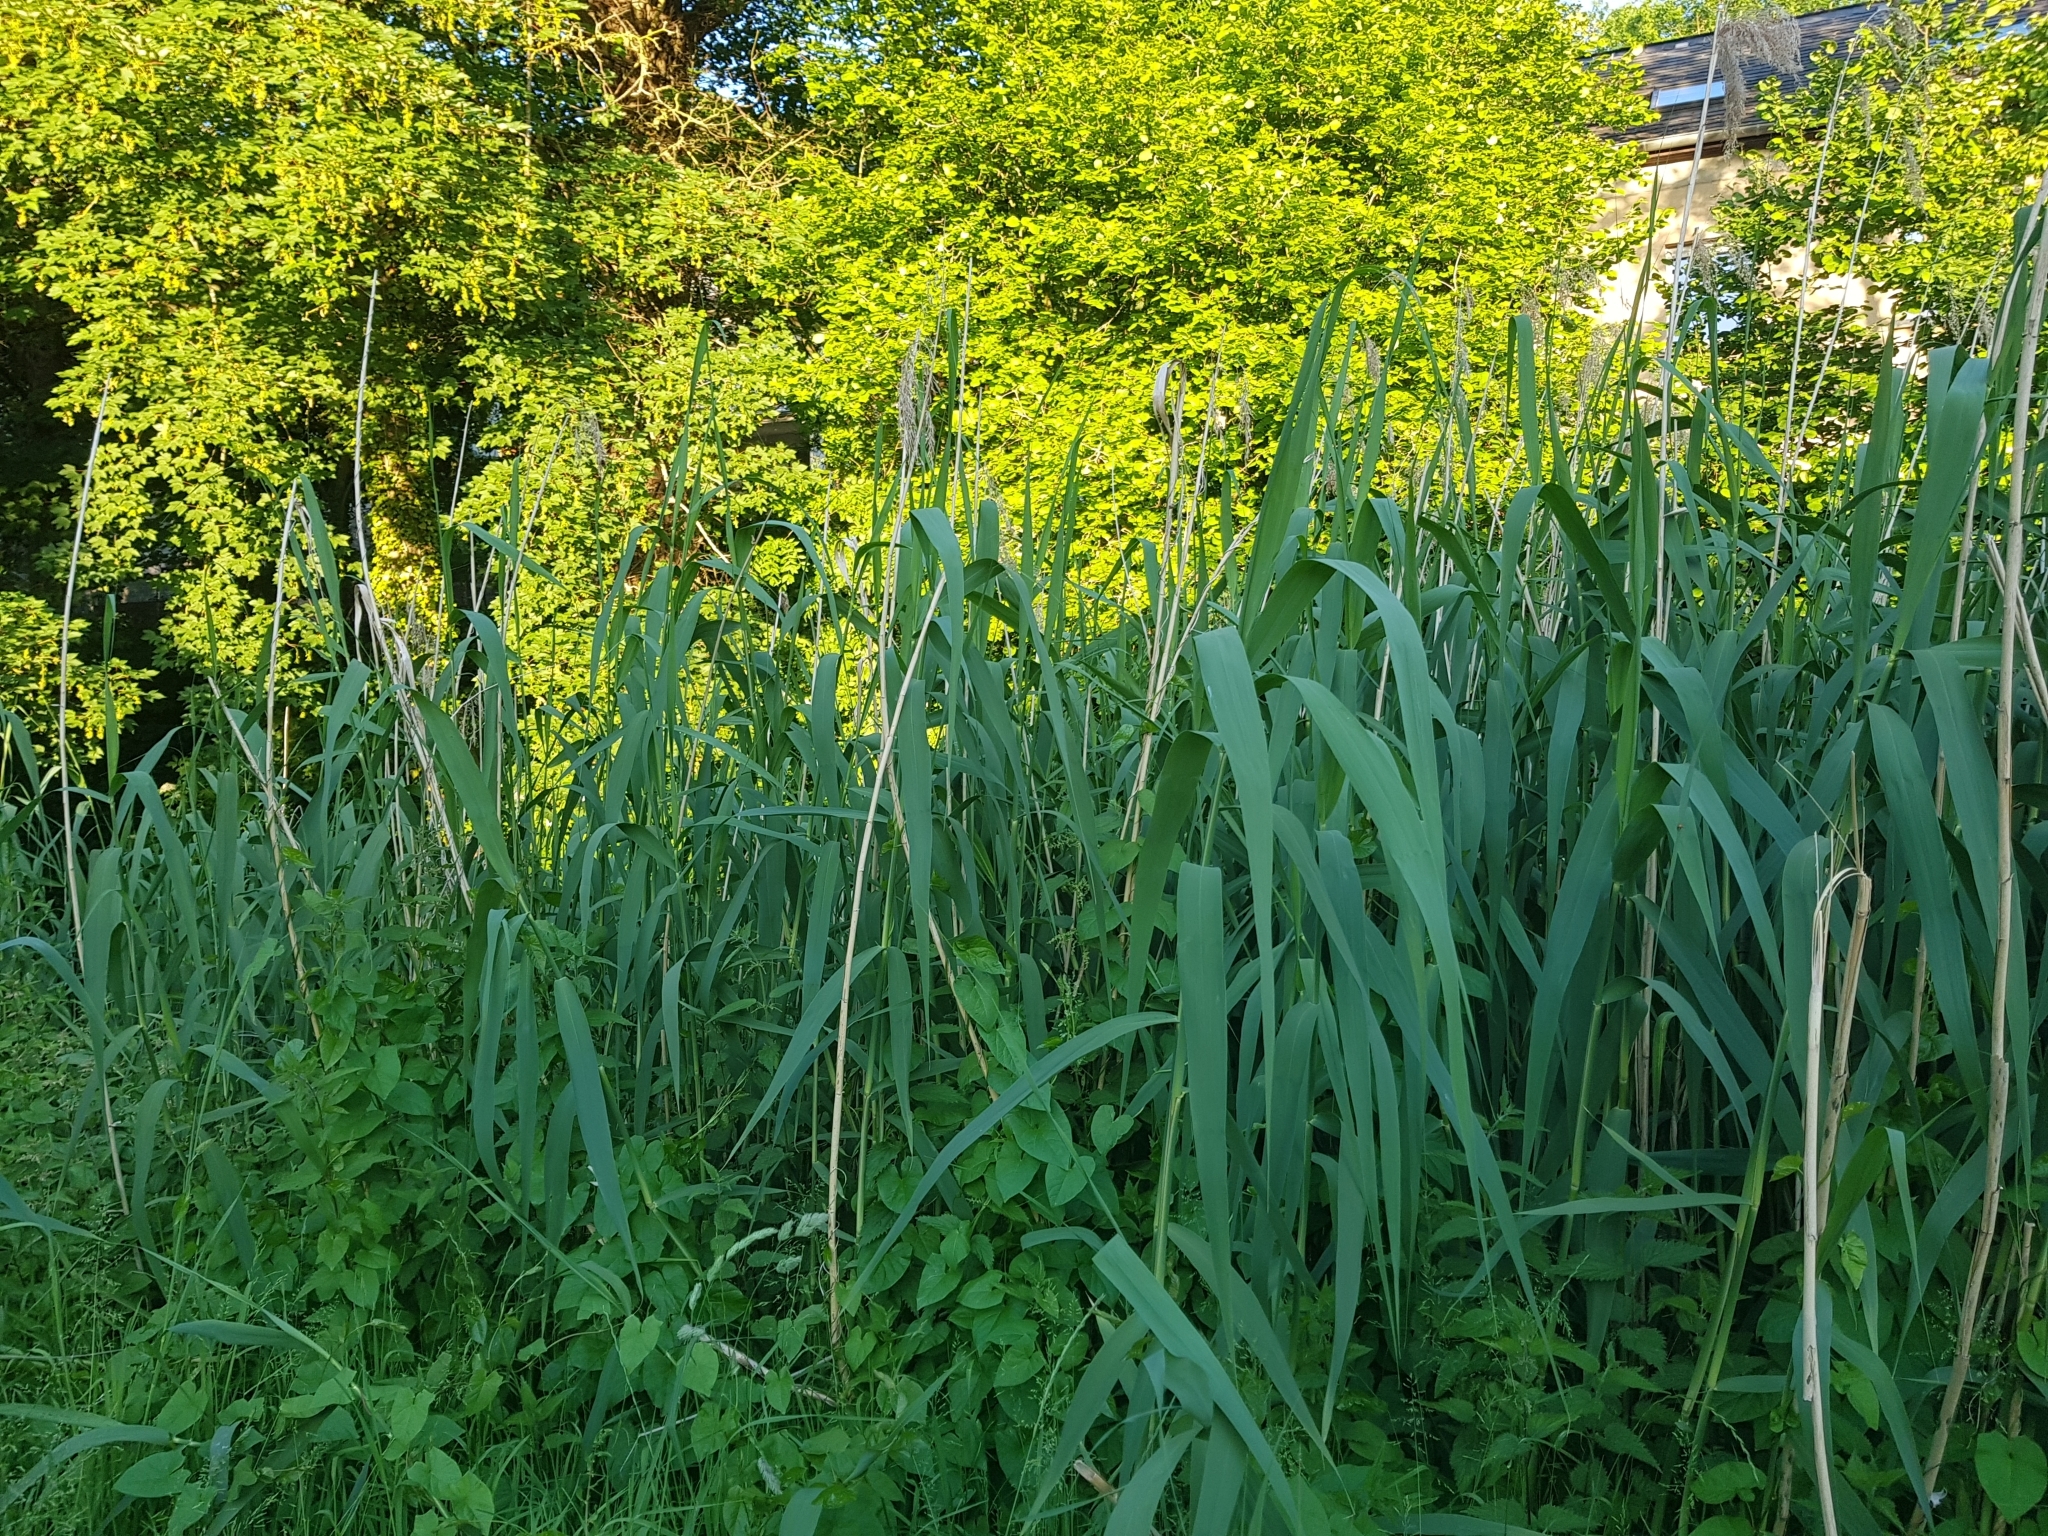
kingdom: Plantae
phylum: Tracheophyta
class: Liliopsida
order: Poales
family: Poaceae
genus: Phragmites
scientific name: Phragmites australis
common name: Common reed
